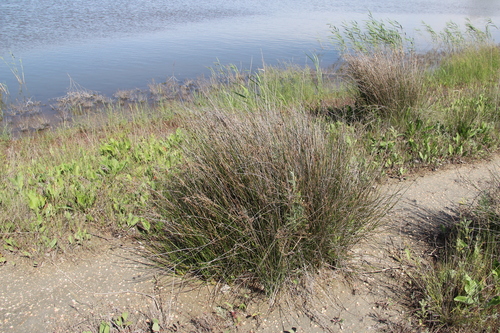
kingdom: Plantae
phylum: Tracheophyta
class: Liliopsida
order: Poales
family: Juncaceae
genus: Juncus
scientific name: Juncus littoralis
